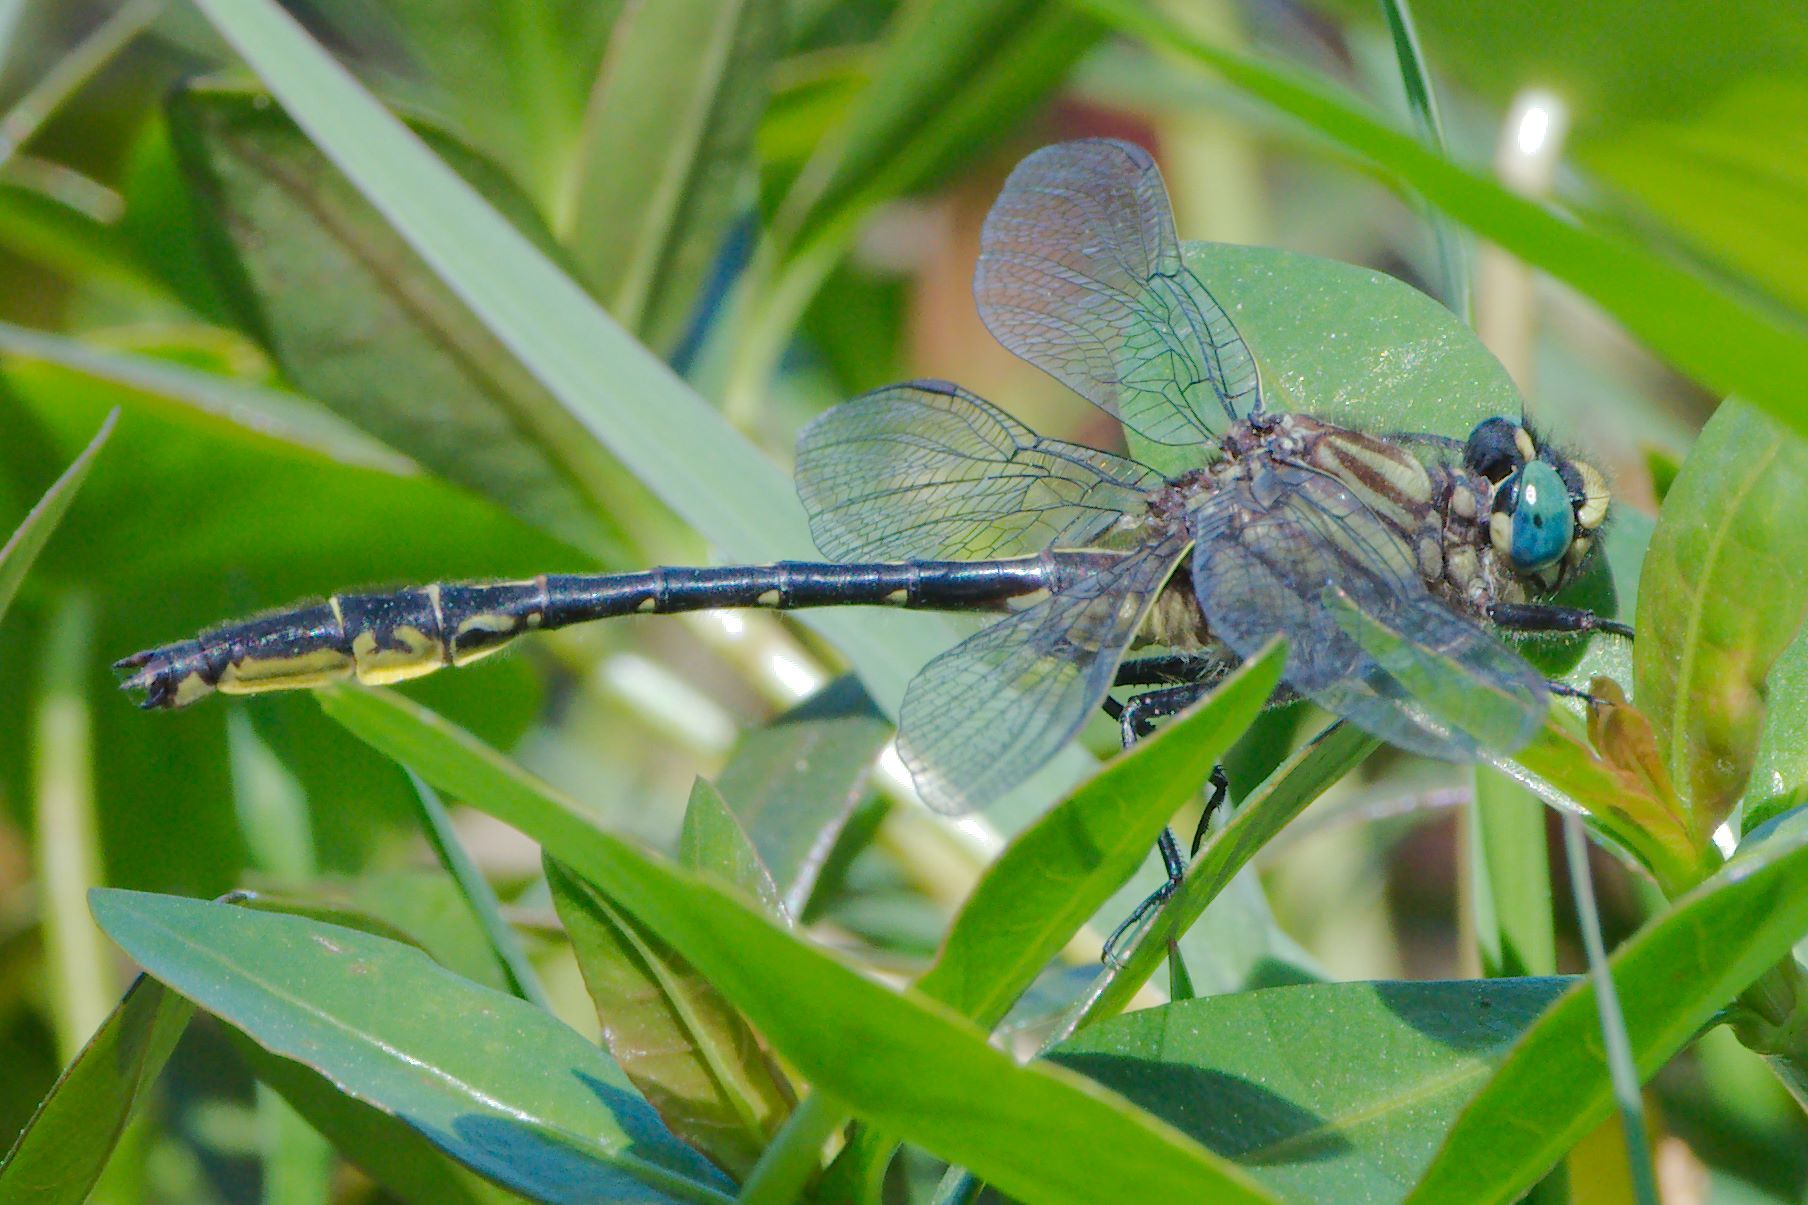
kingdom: Animalia
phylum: Arthropoda
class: Insecta
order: Odonata
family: Gomphidae
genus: Phanogomphus
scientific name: Phanogomphus australis
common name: Clearlake clubtail
